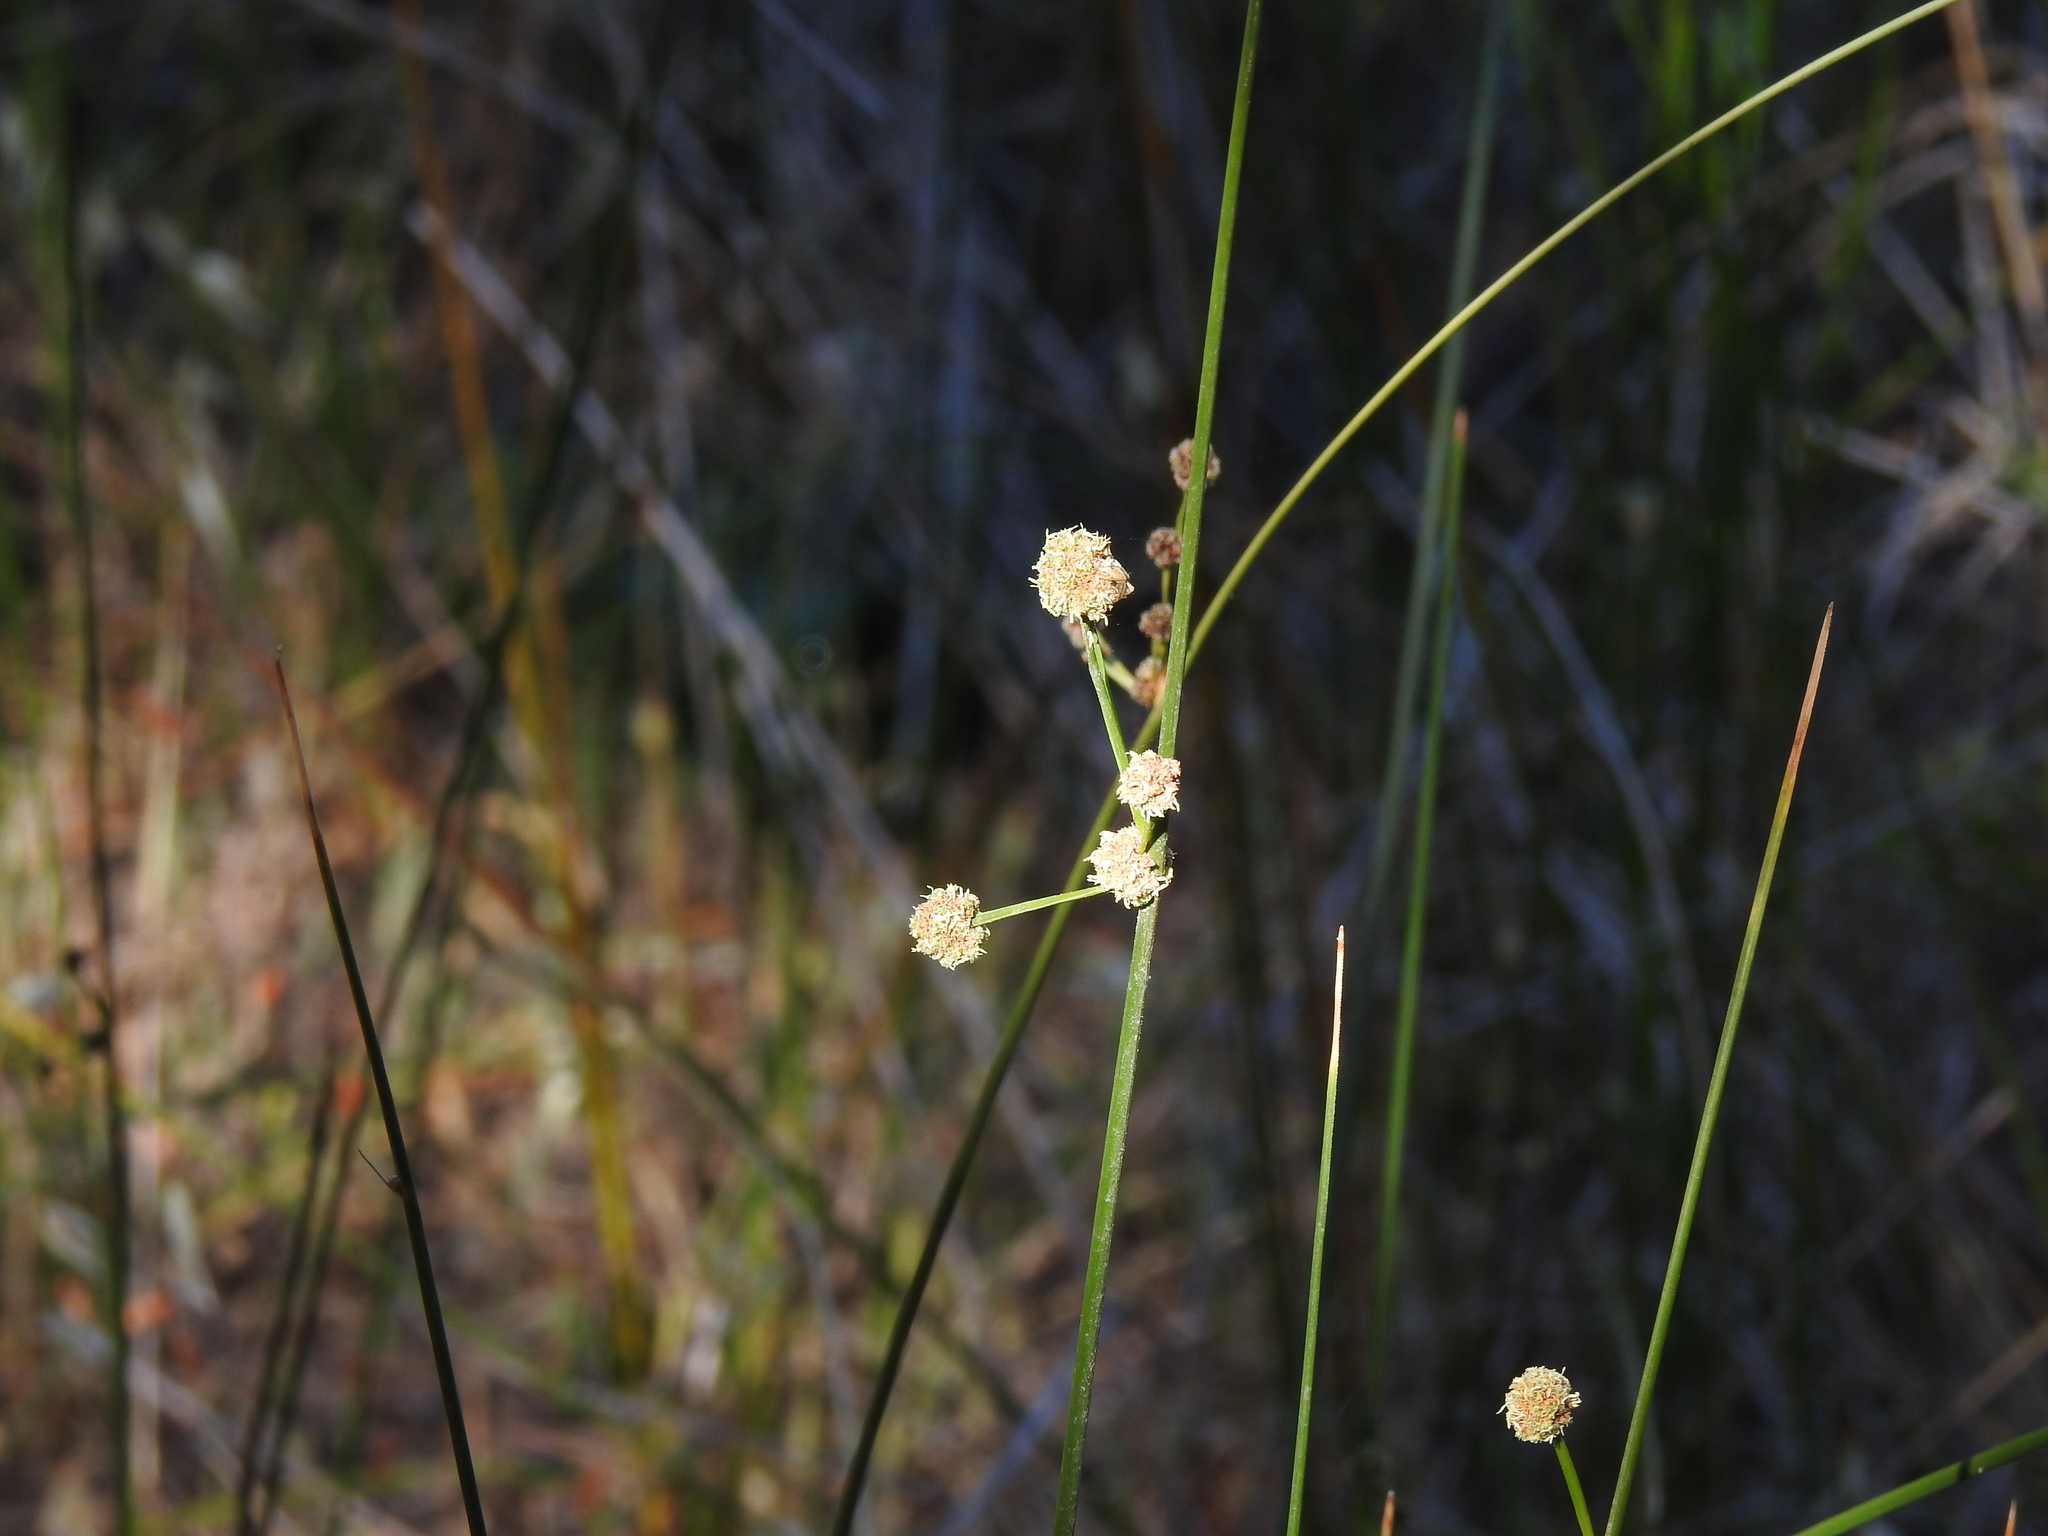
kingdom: Plantae
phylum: Tracheophyta
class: Liliopsida
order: Poales
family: Cyperaceae
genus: Scirpoides
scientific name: Scirpoides holoschoenus
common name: Round-headed club-rush
